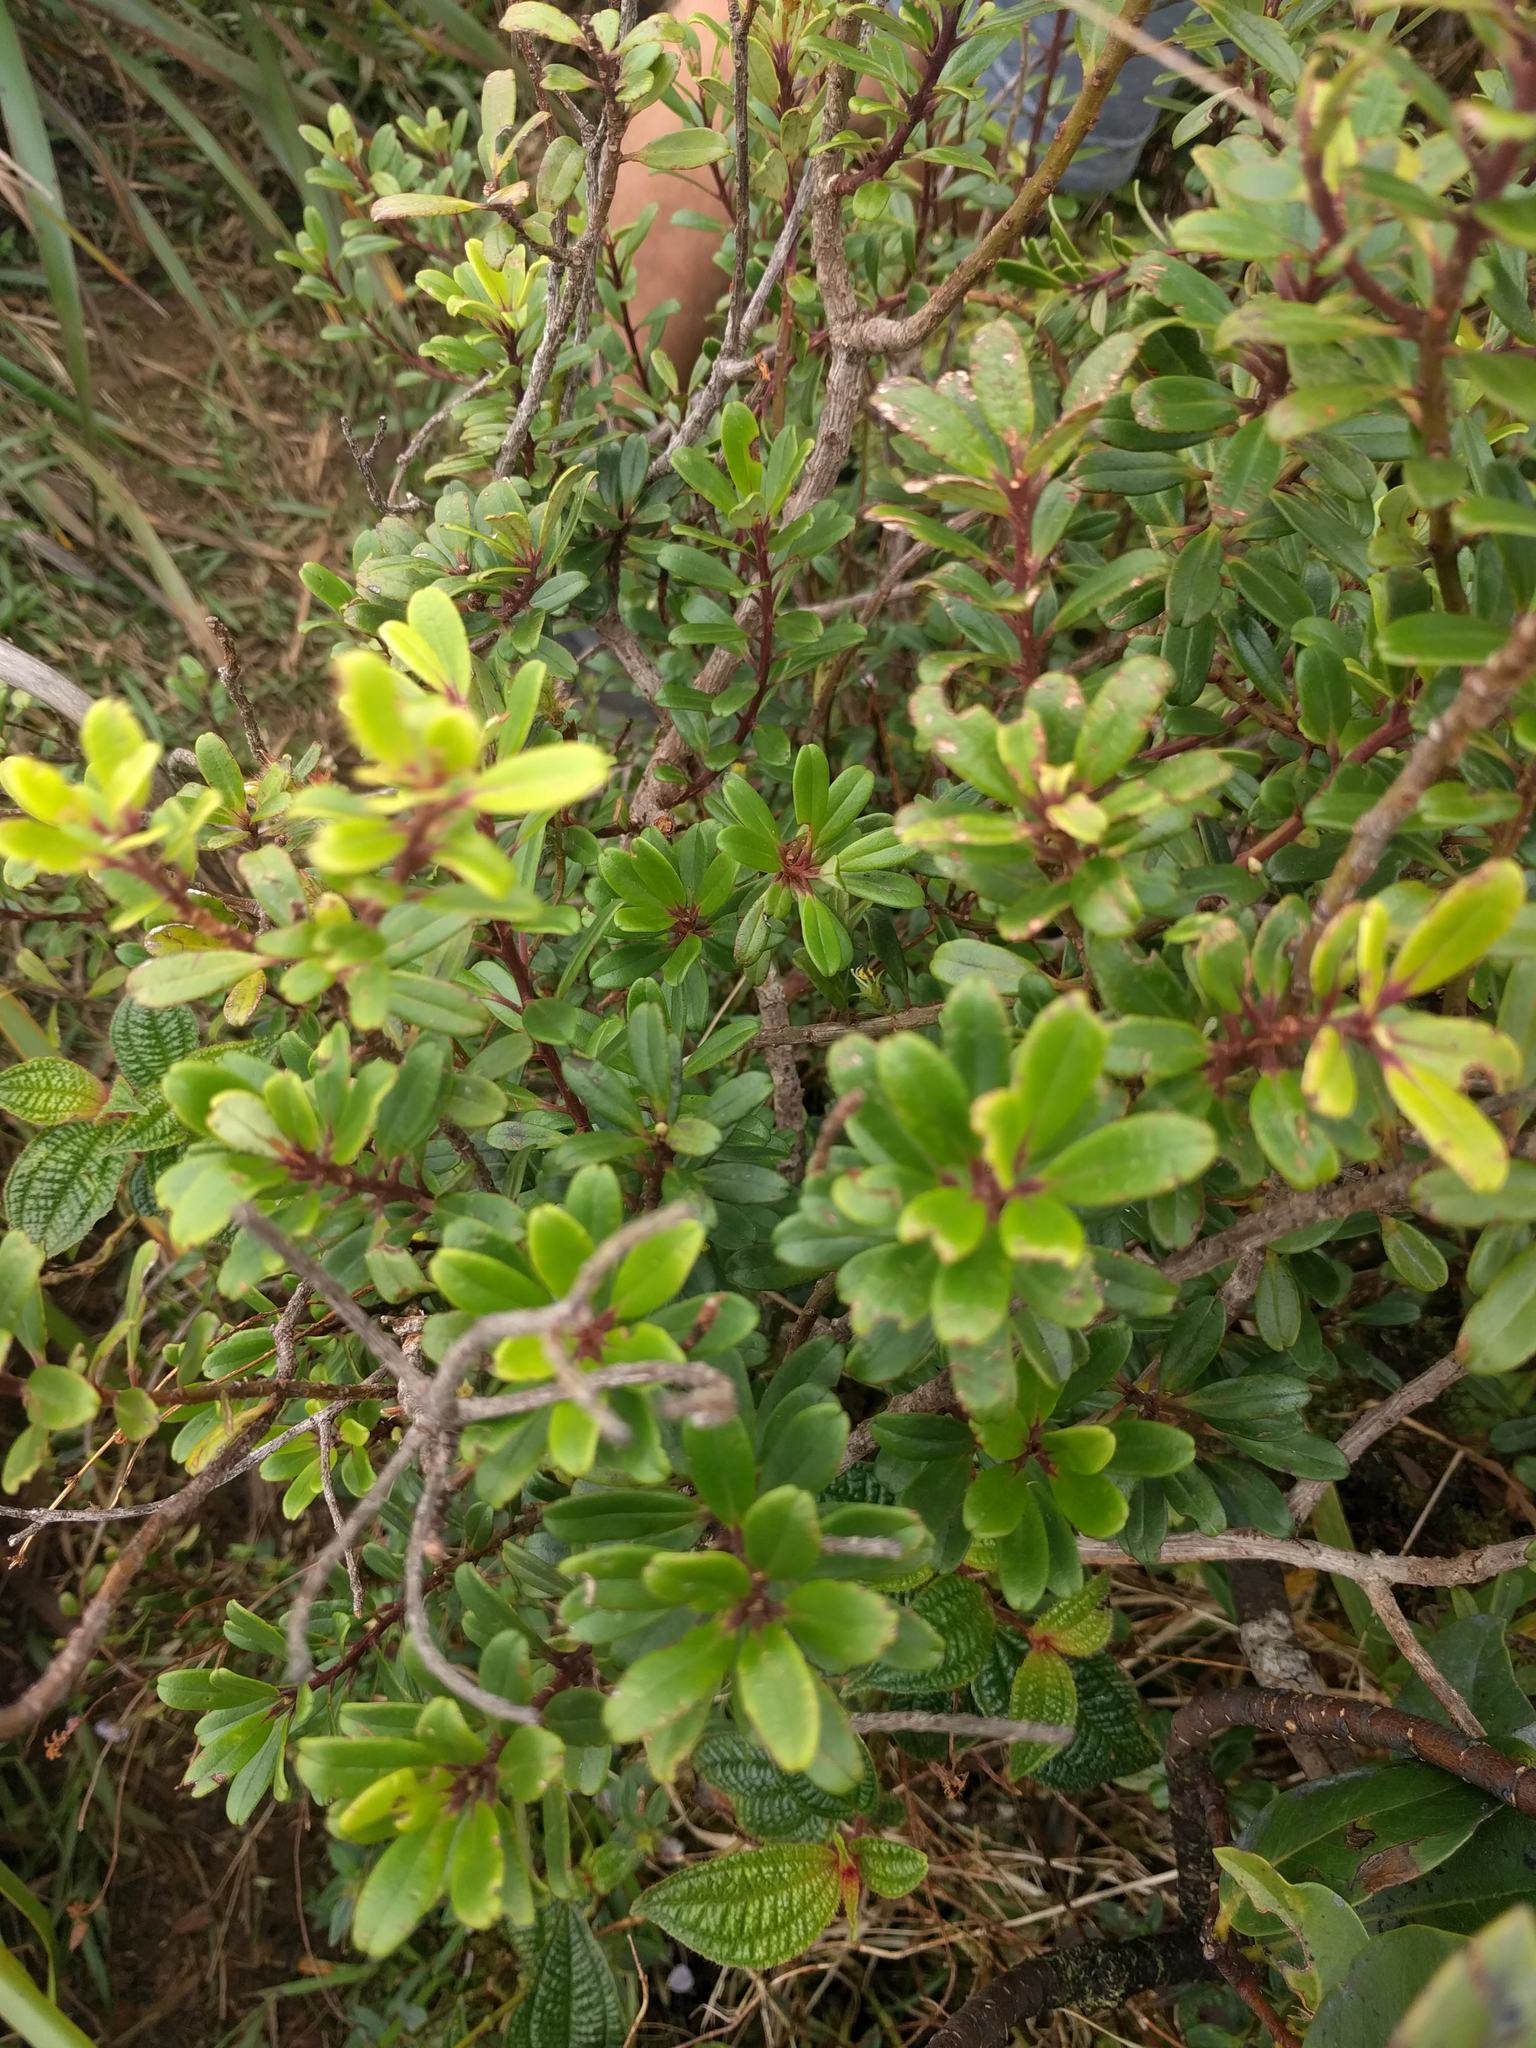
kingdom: Plantae
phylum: Tracheophyta
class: Magnoliopsida
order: Ericales
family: Primulaceae
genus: Myrsine
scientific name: Myrsine sandwicensis
